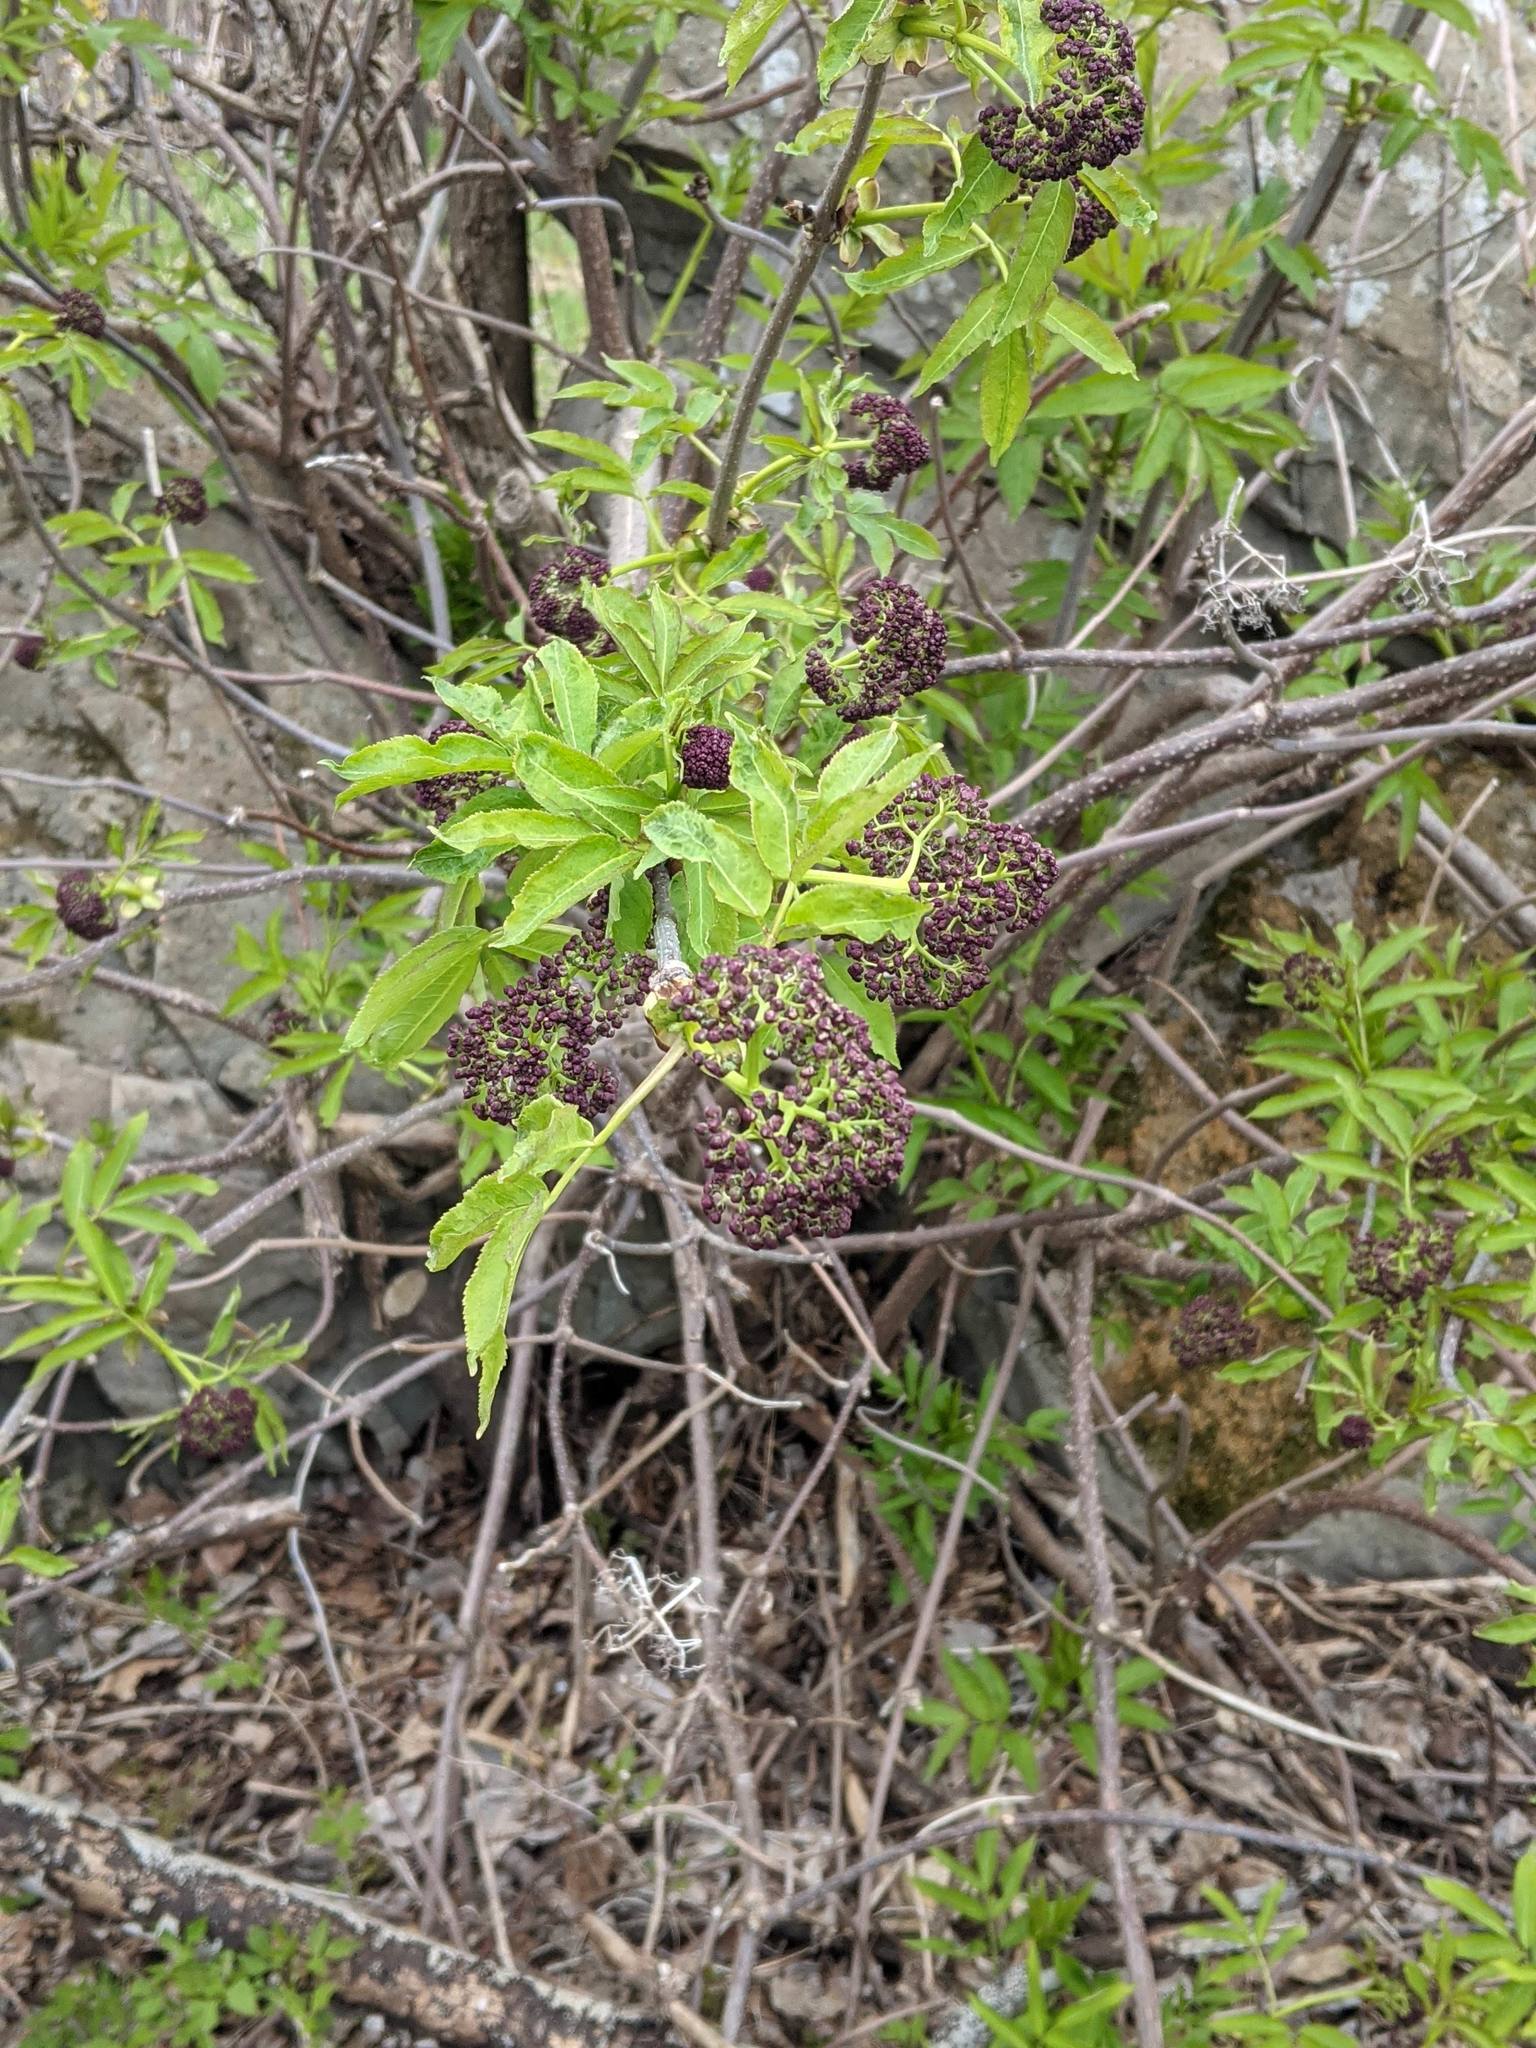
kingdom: Plantae
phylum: Tracheophyta
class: Magnoliopsida
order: Dipsacales
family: Viburnaceae
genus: Sambucus
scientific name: Sambucus racemosa
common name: Red-berried elder
